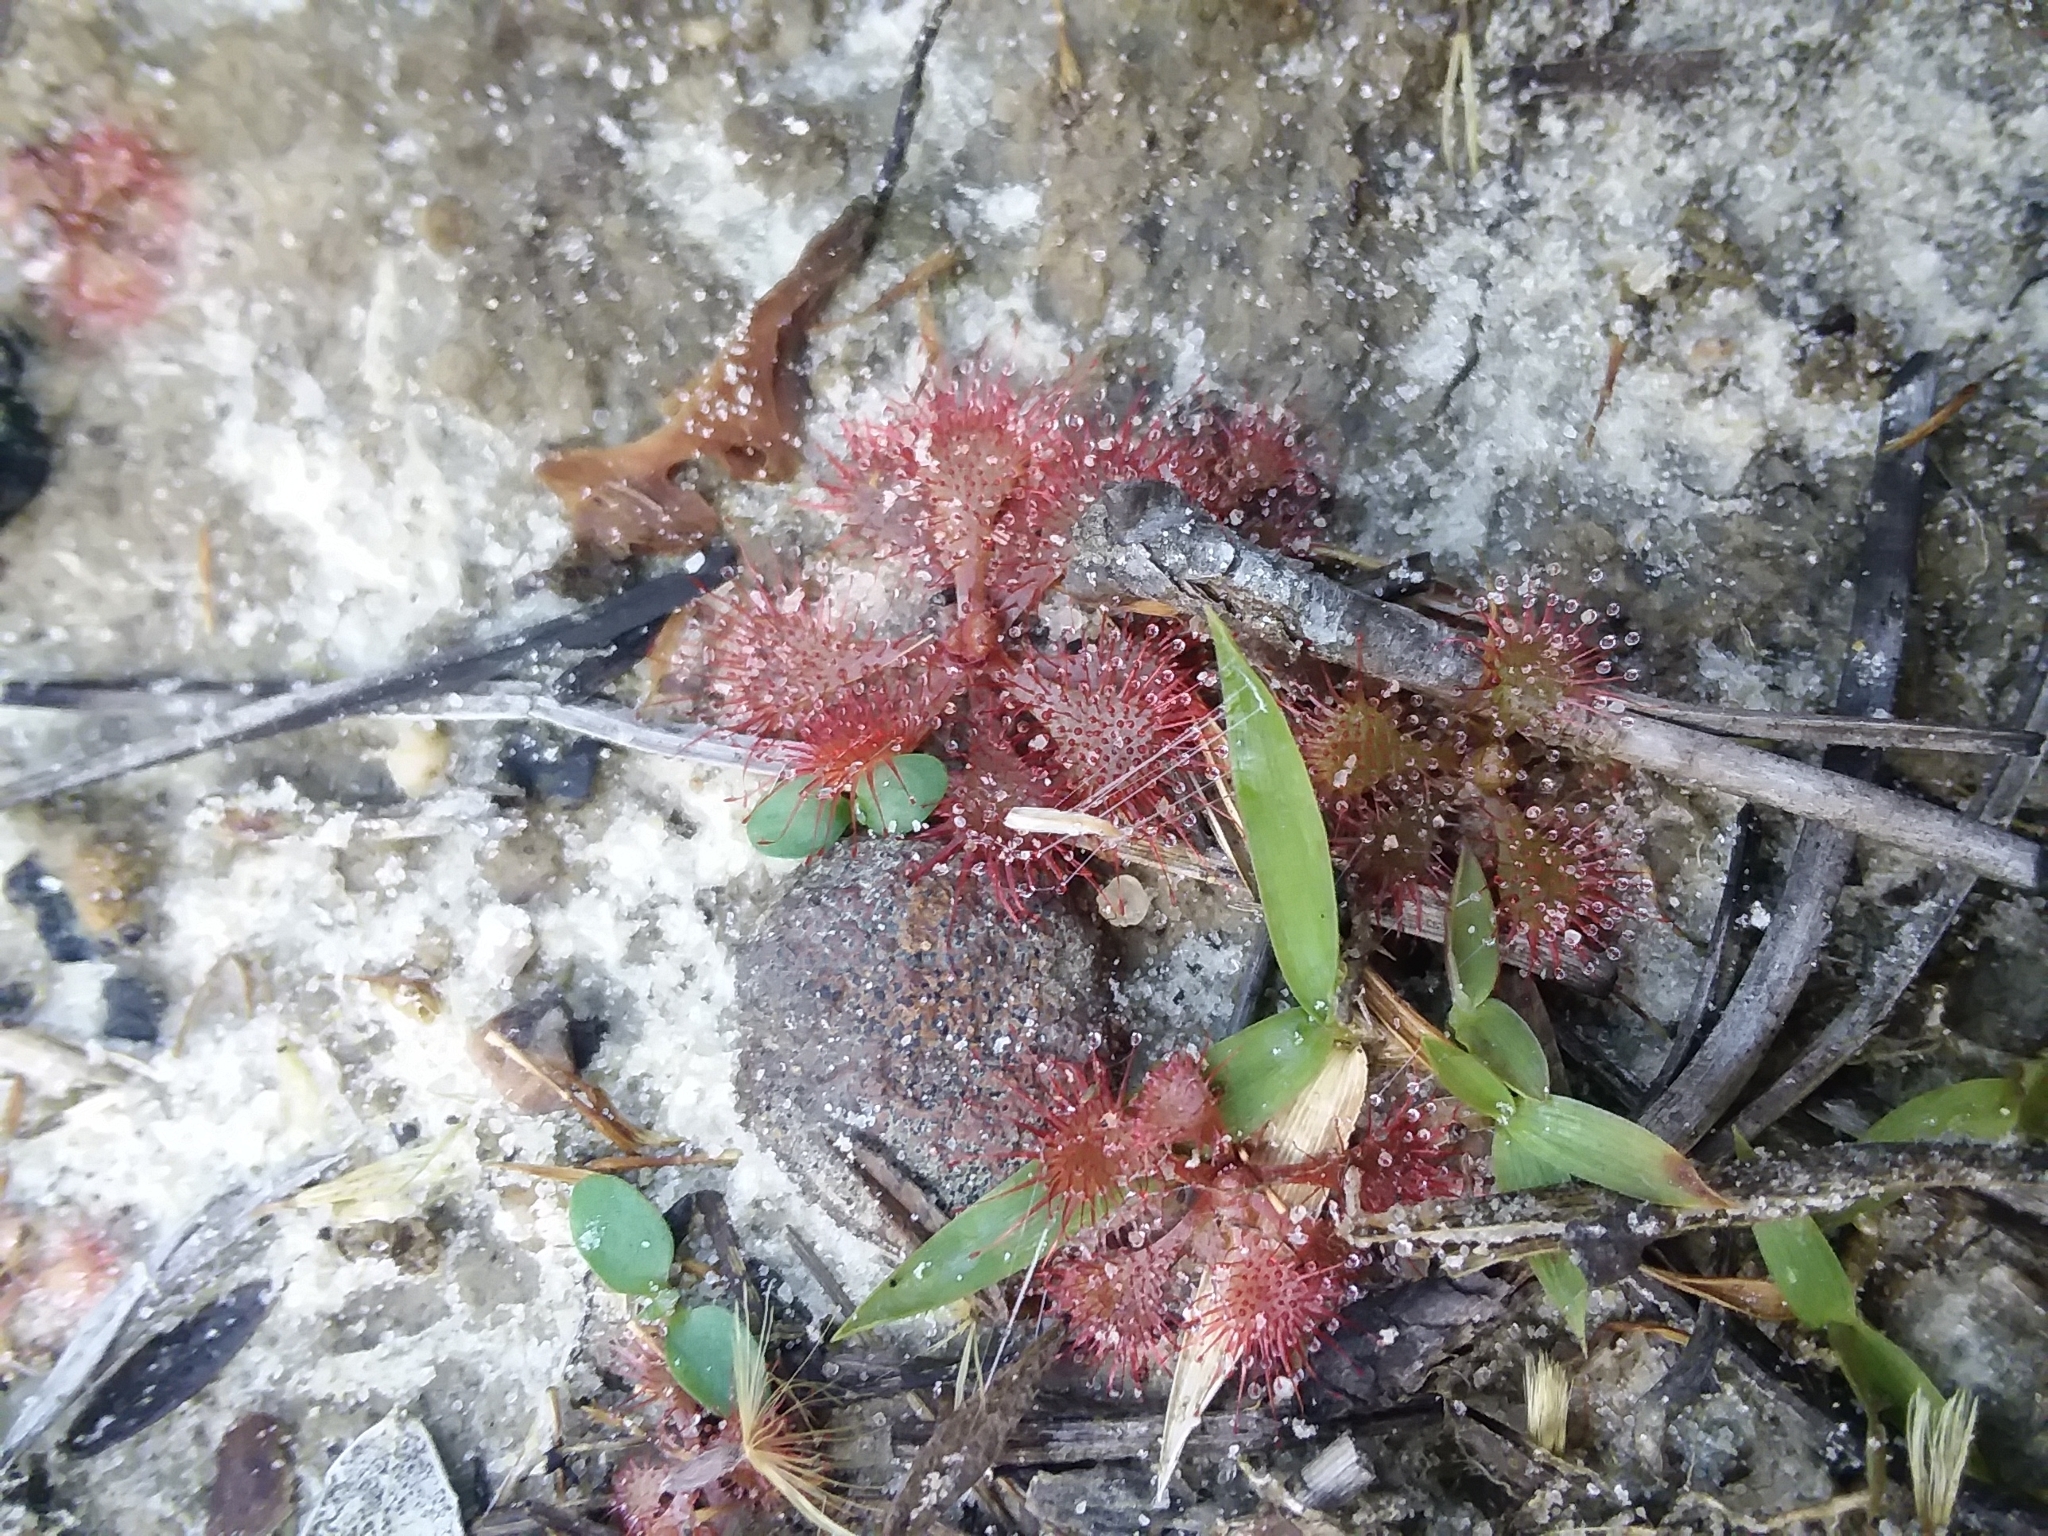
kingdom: Plantae
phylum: Tracheophyta
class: Magnoliopsida
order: Caryophyllales
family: Droseraceae
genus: Drosera
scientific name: Drosera brevifolia
